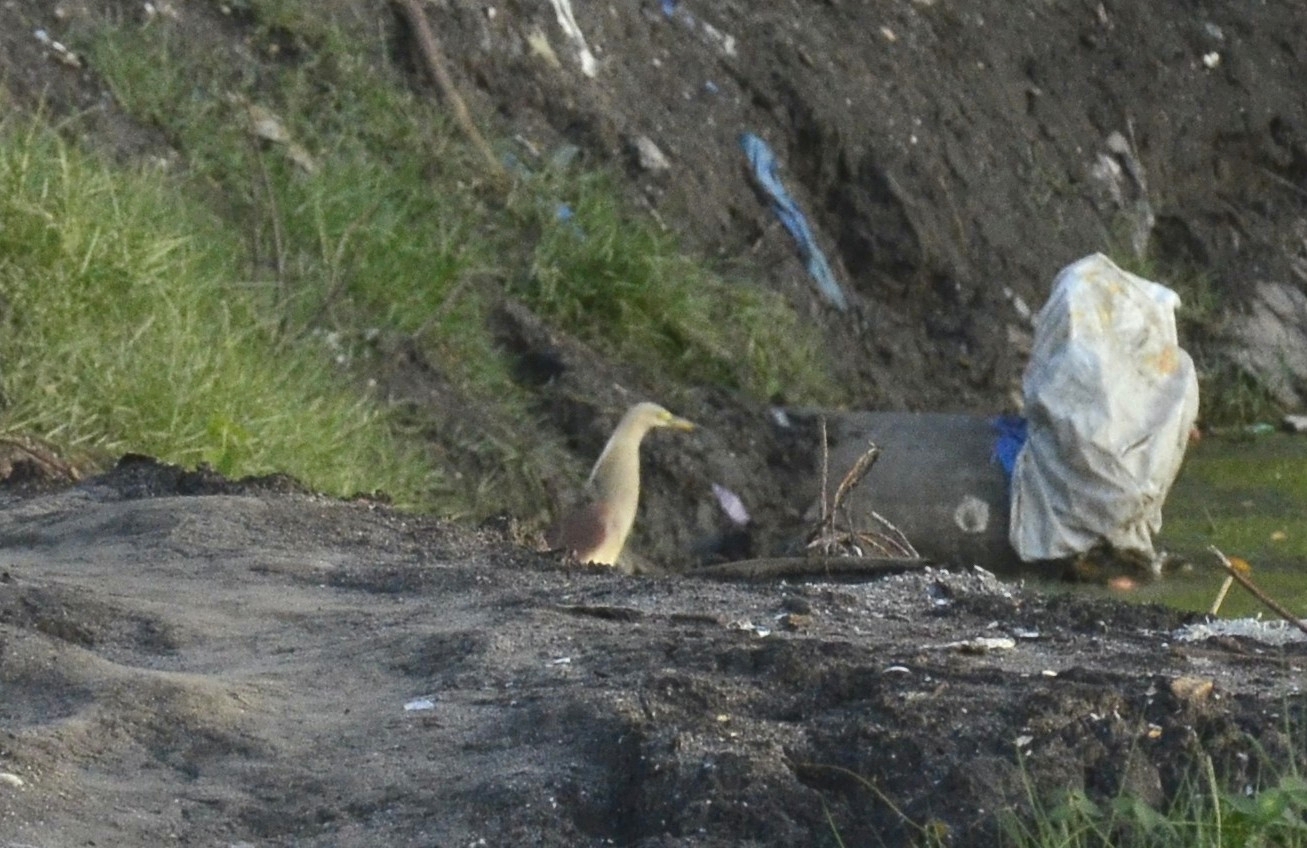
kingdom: Animalia
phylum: Chordata
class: Aves
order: Pelecaniformes
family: Ardeidae
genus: Ardeola
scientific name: Ardeola grayii
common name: Indian pond heron
